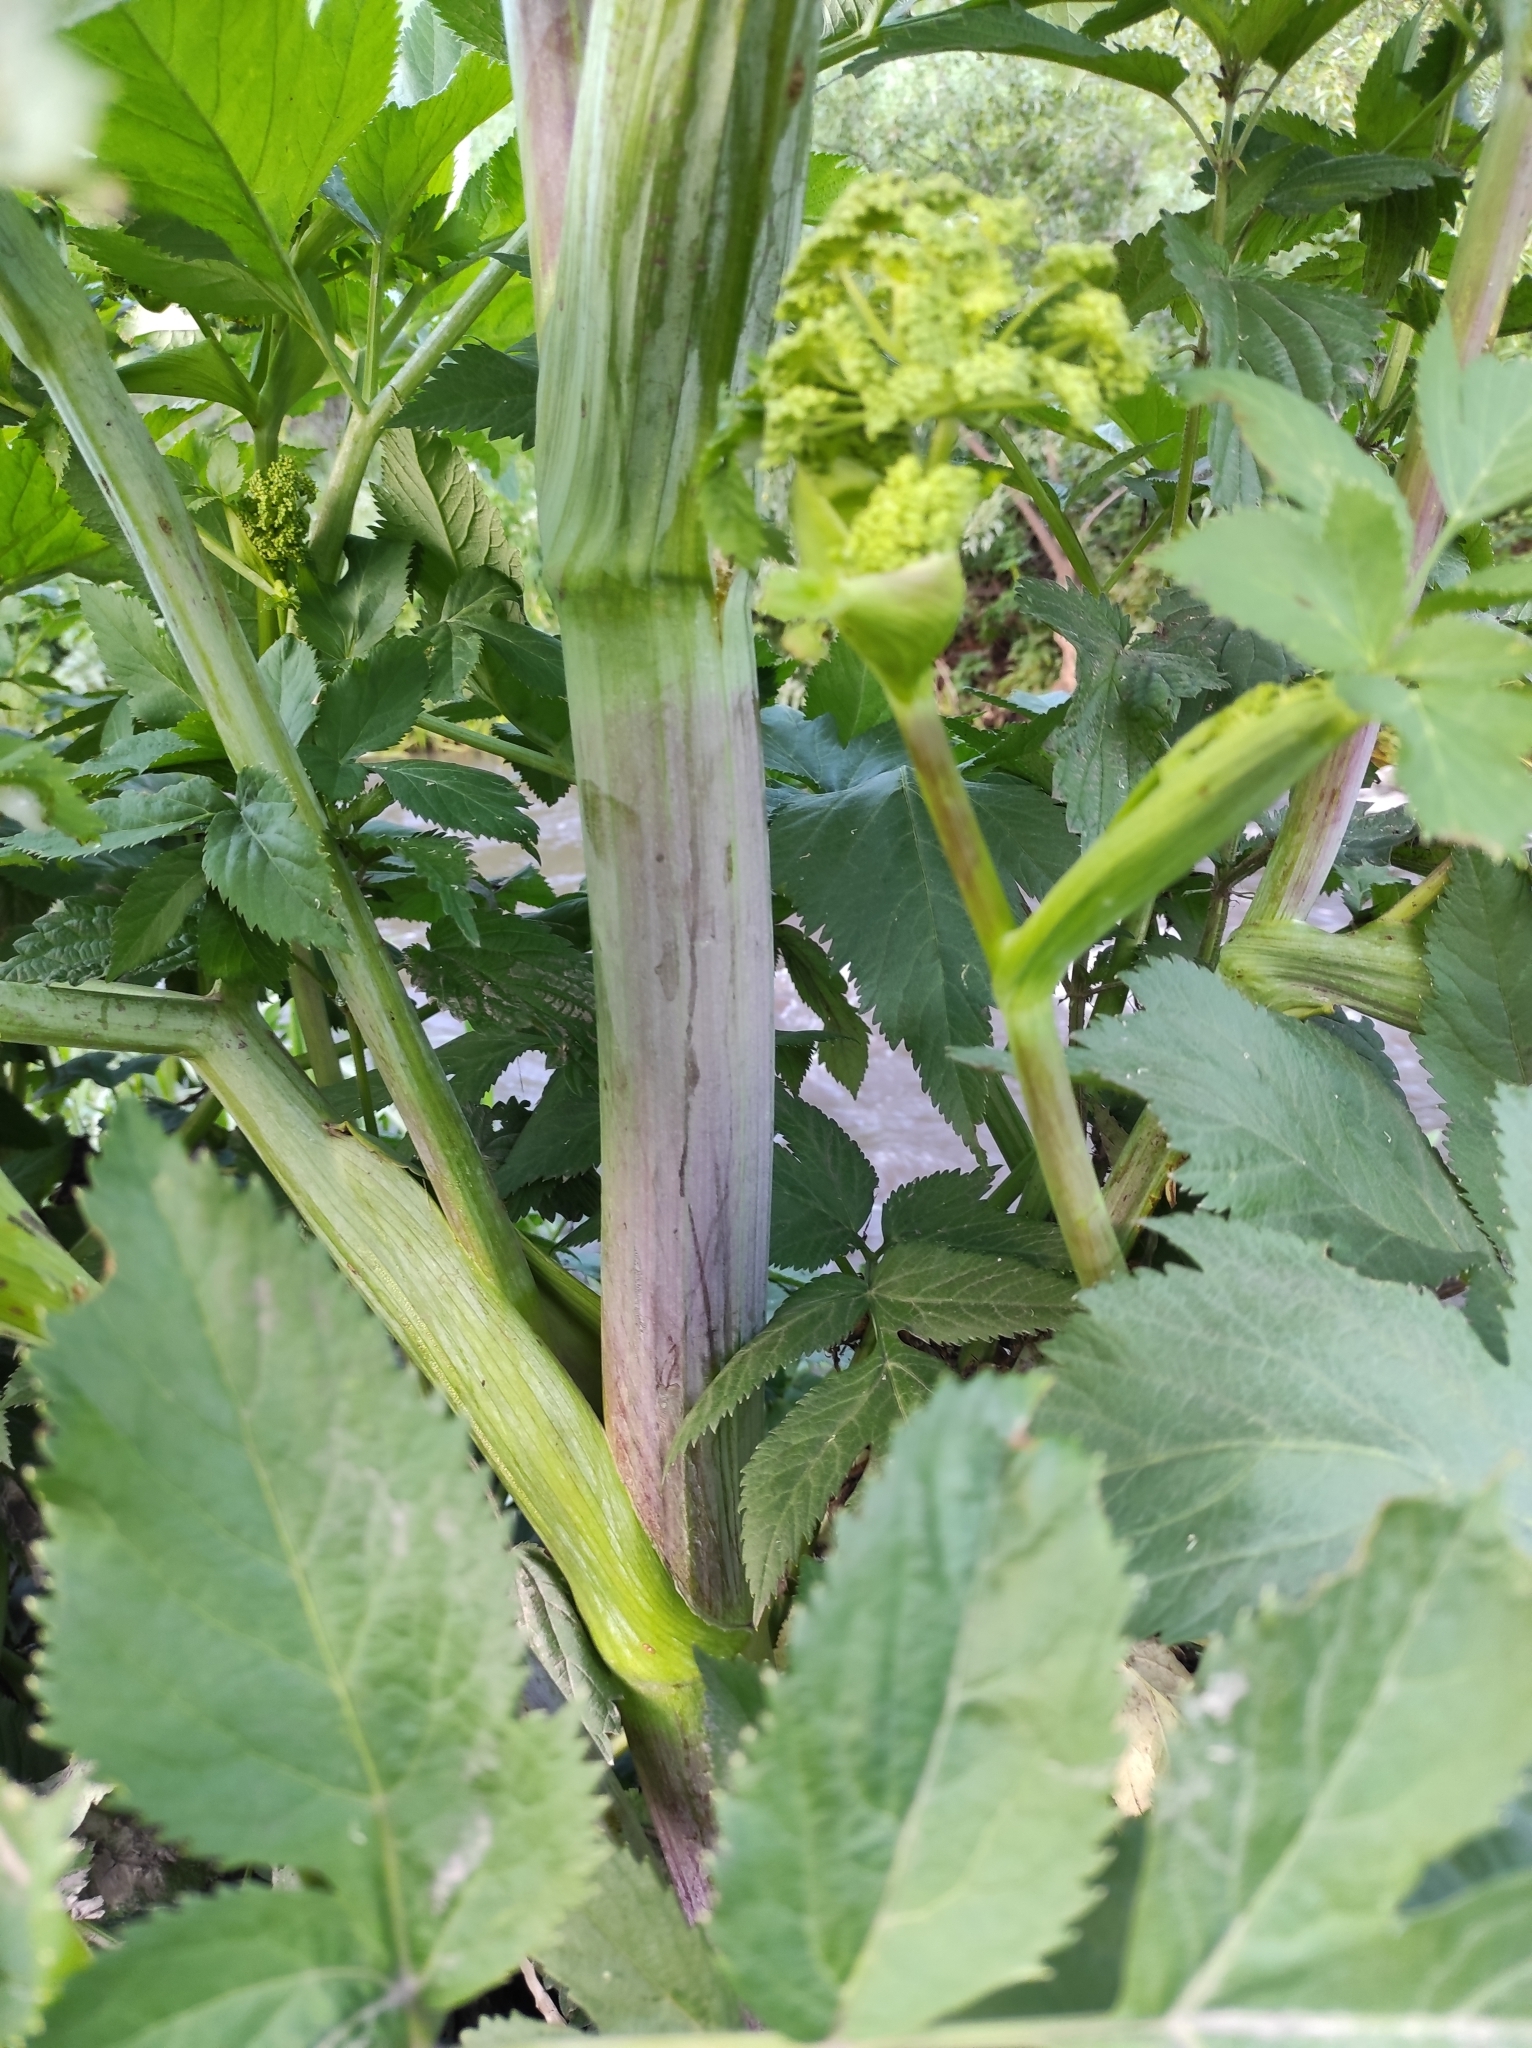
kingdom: Plantae
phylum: Tracheophyta
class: Magnoliopsida
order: Apiales
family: Apiaceae
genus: Angelica
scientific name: Angelica archangelica
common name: Garden angelica
